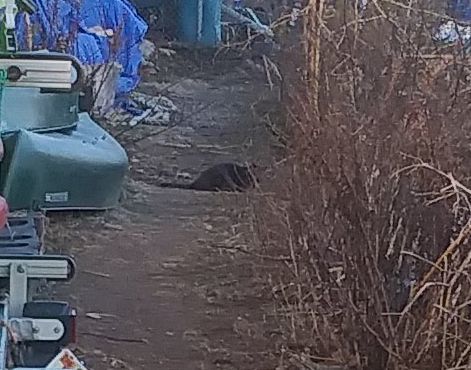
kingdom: Animalia
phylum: Chordata
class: Mammalia
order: Carnivora
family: Felidae
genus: Felis
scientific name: Felis catus
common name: Domestic cat
